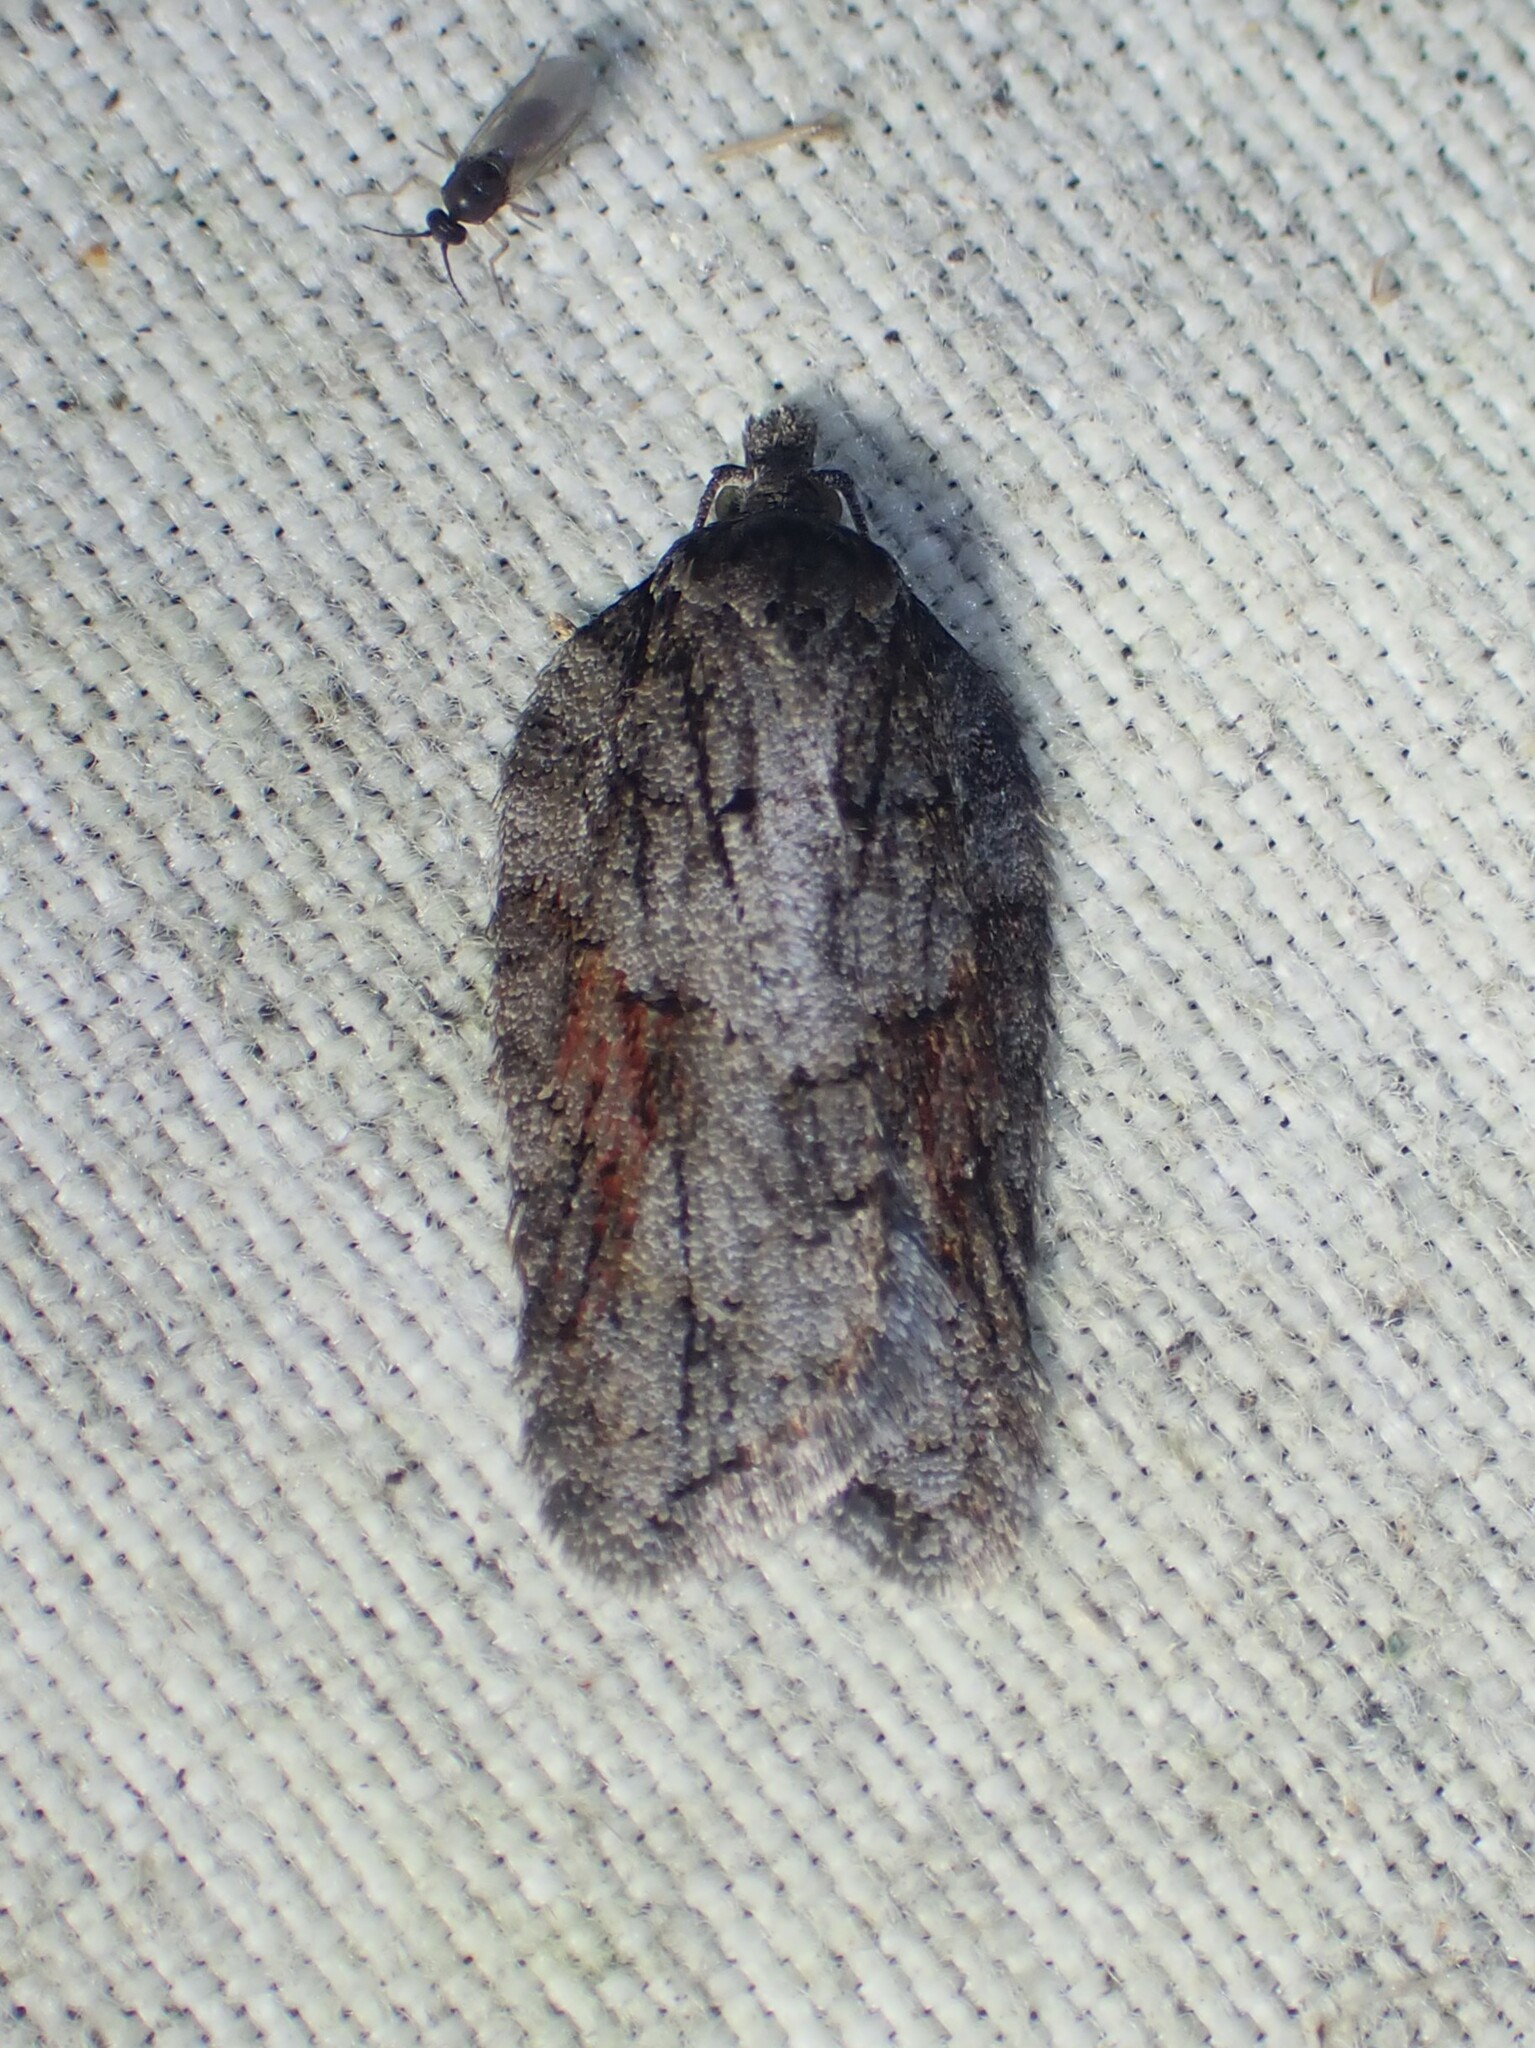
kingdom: Animalia
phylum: Arthropoda
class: Insecta
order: Lepidoptera
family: Tortricidae
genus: Acleris
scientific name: Acleris ptychogrammos
